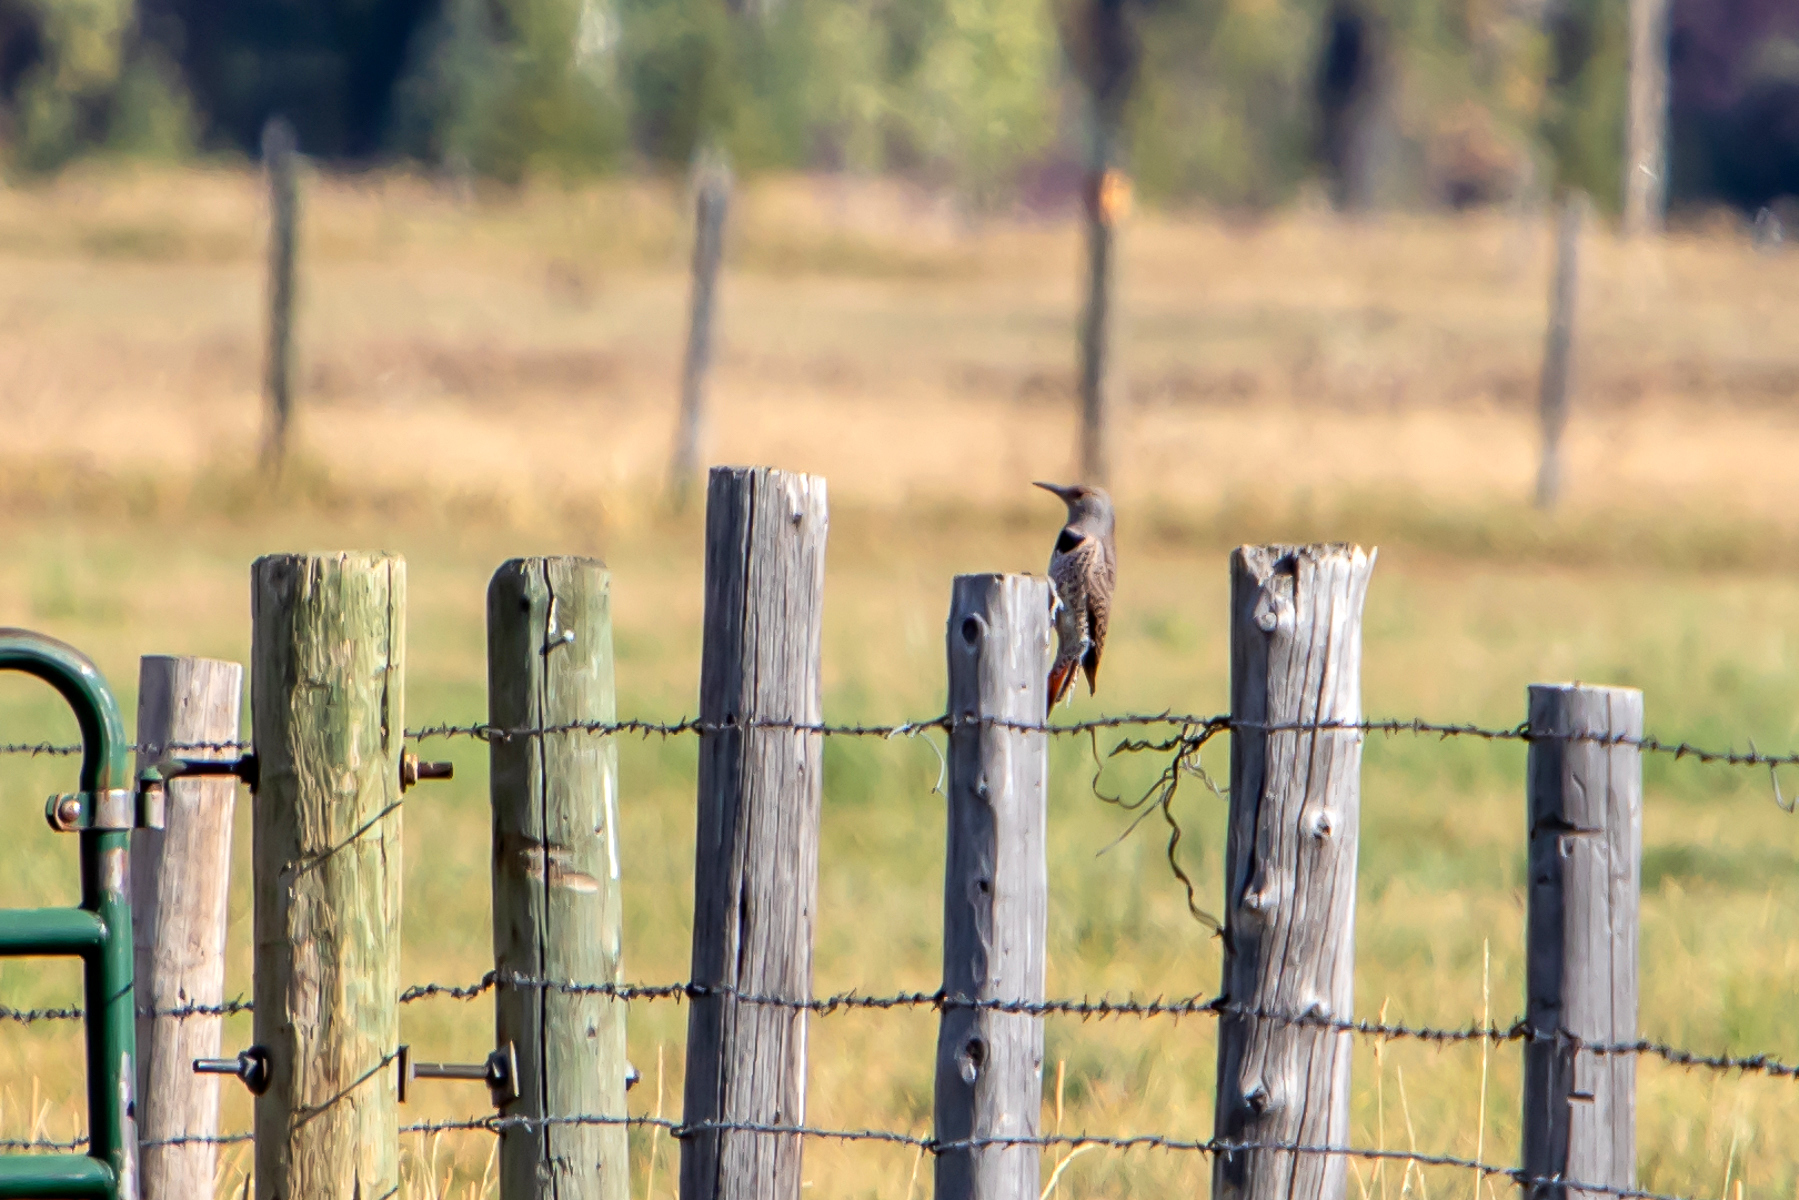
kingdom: Animalia
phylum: Chordata
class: Aves
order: Piciformes
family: Picidae
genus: Colaptes
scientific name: Colaptes auratus
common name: Northern flicker
